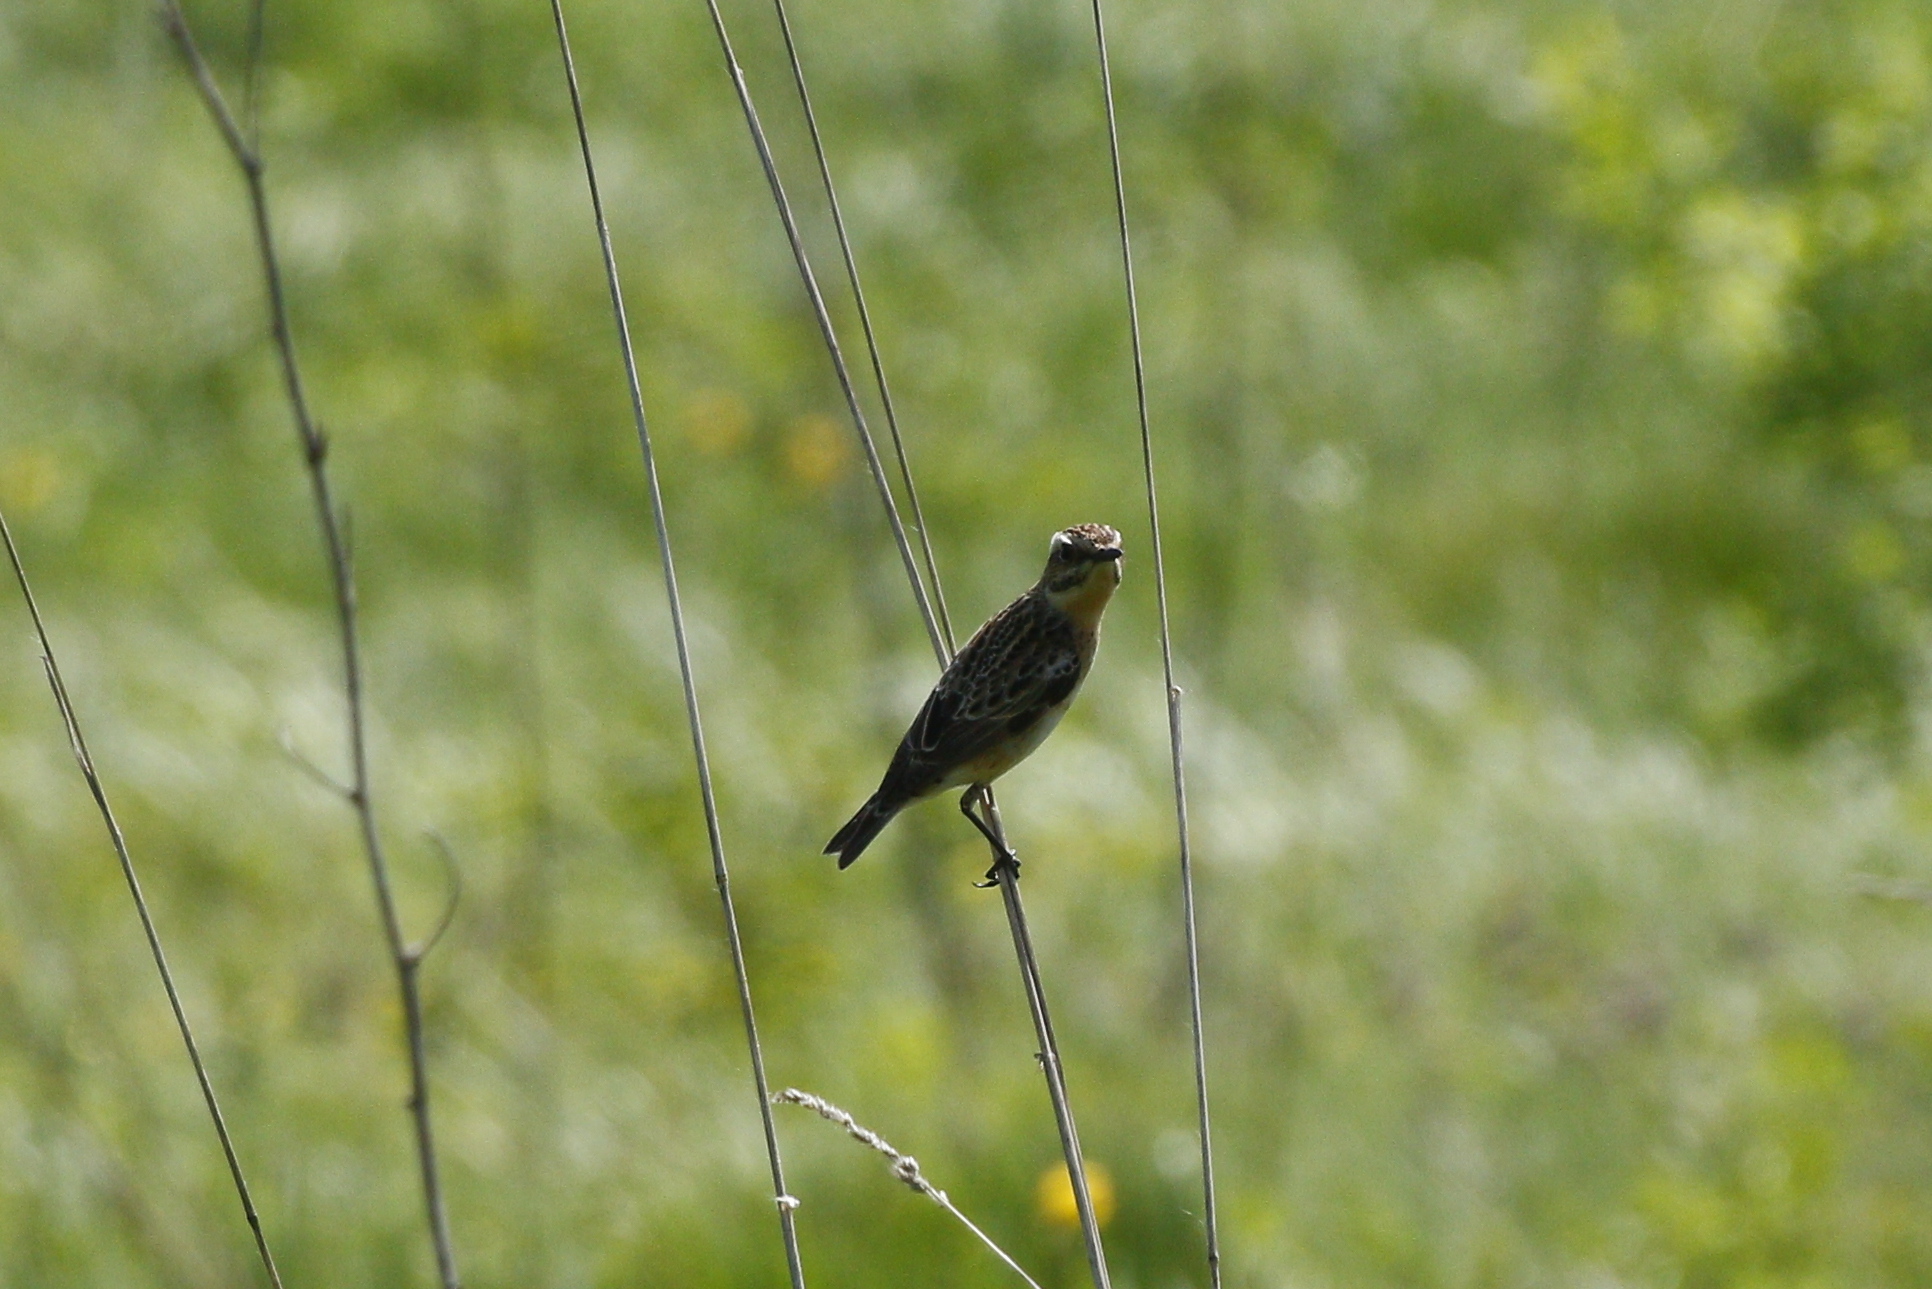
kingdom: Animalia
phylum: Chordata
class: Aves
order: Passeriformes
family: Muscicapidae
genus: Saxicola
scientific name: Saxicola rubetra
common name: Whinchat
